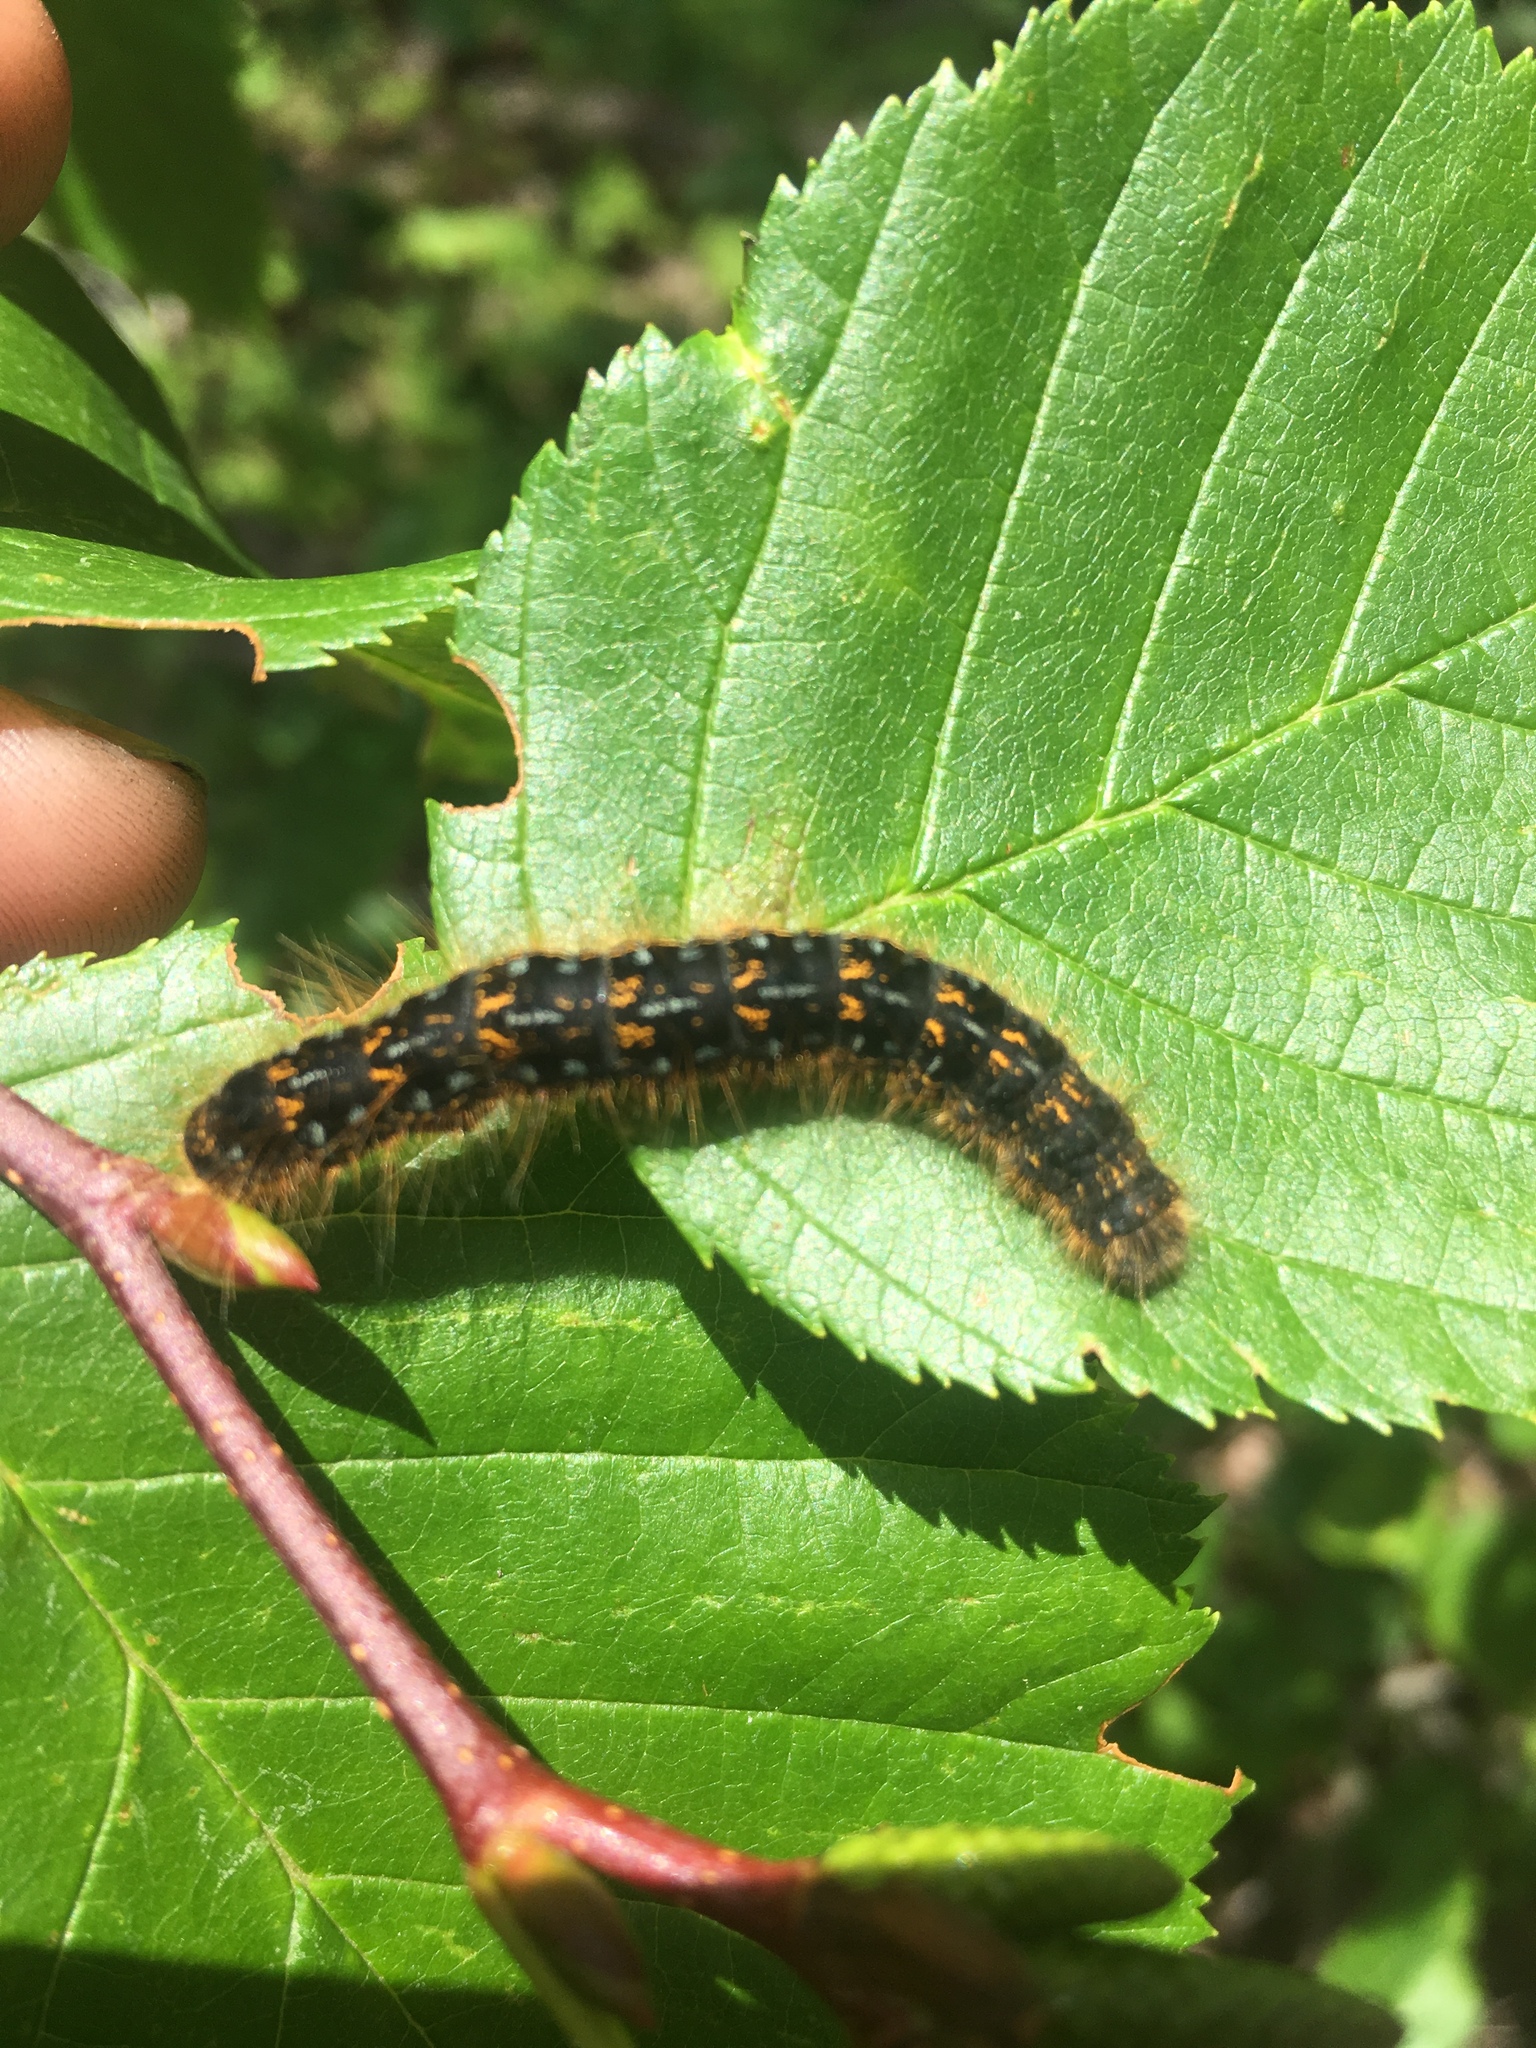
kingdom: Animalia
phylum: Arthropoda
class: Insecta
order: Lepidoptera
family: Lasiocampidae
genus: Malacosoma
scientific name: Malacosoma californica
